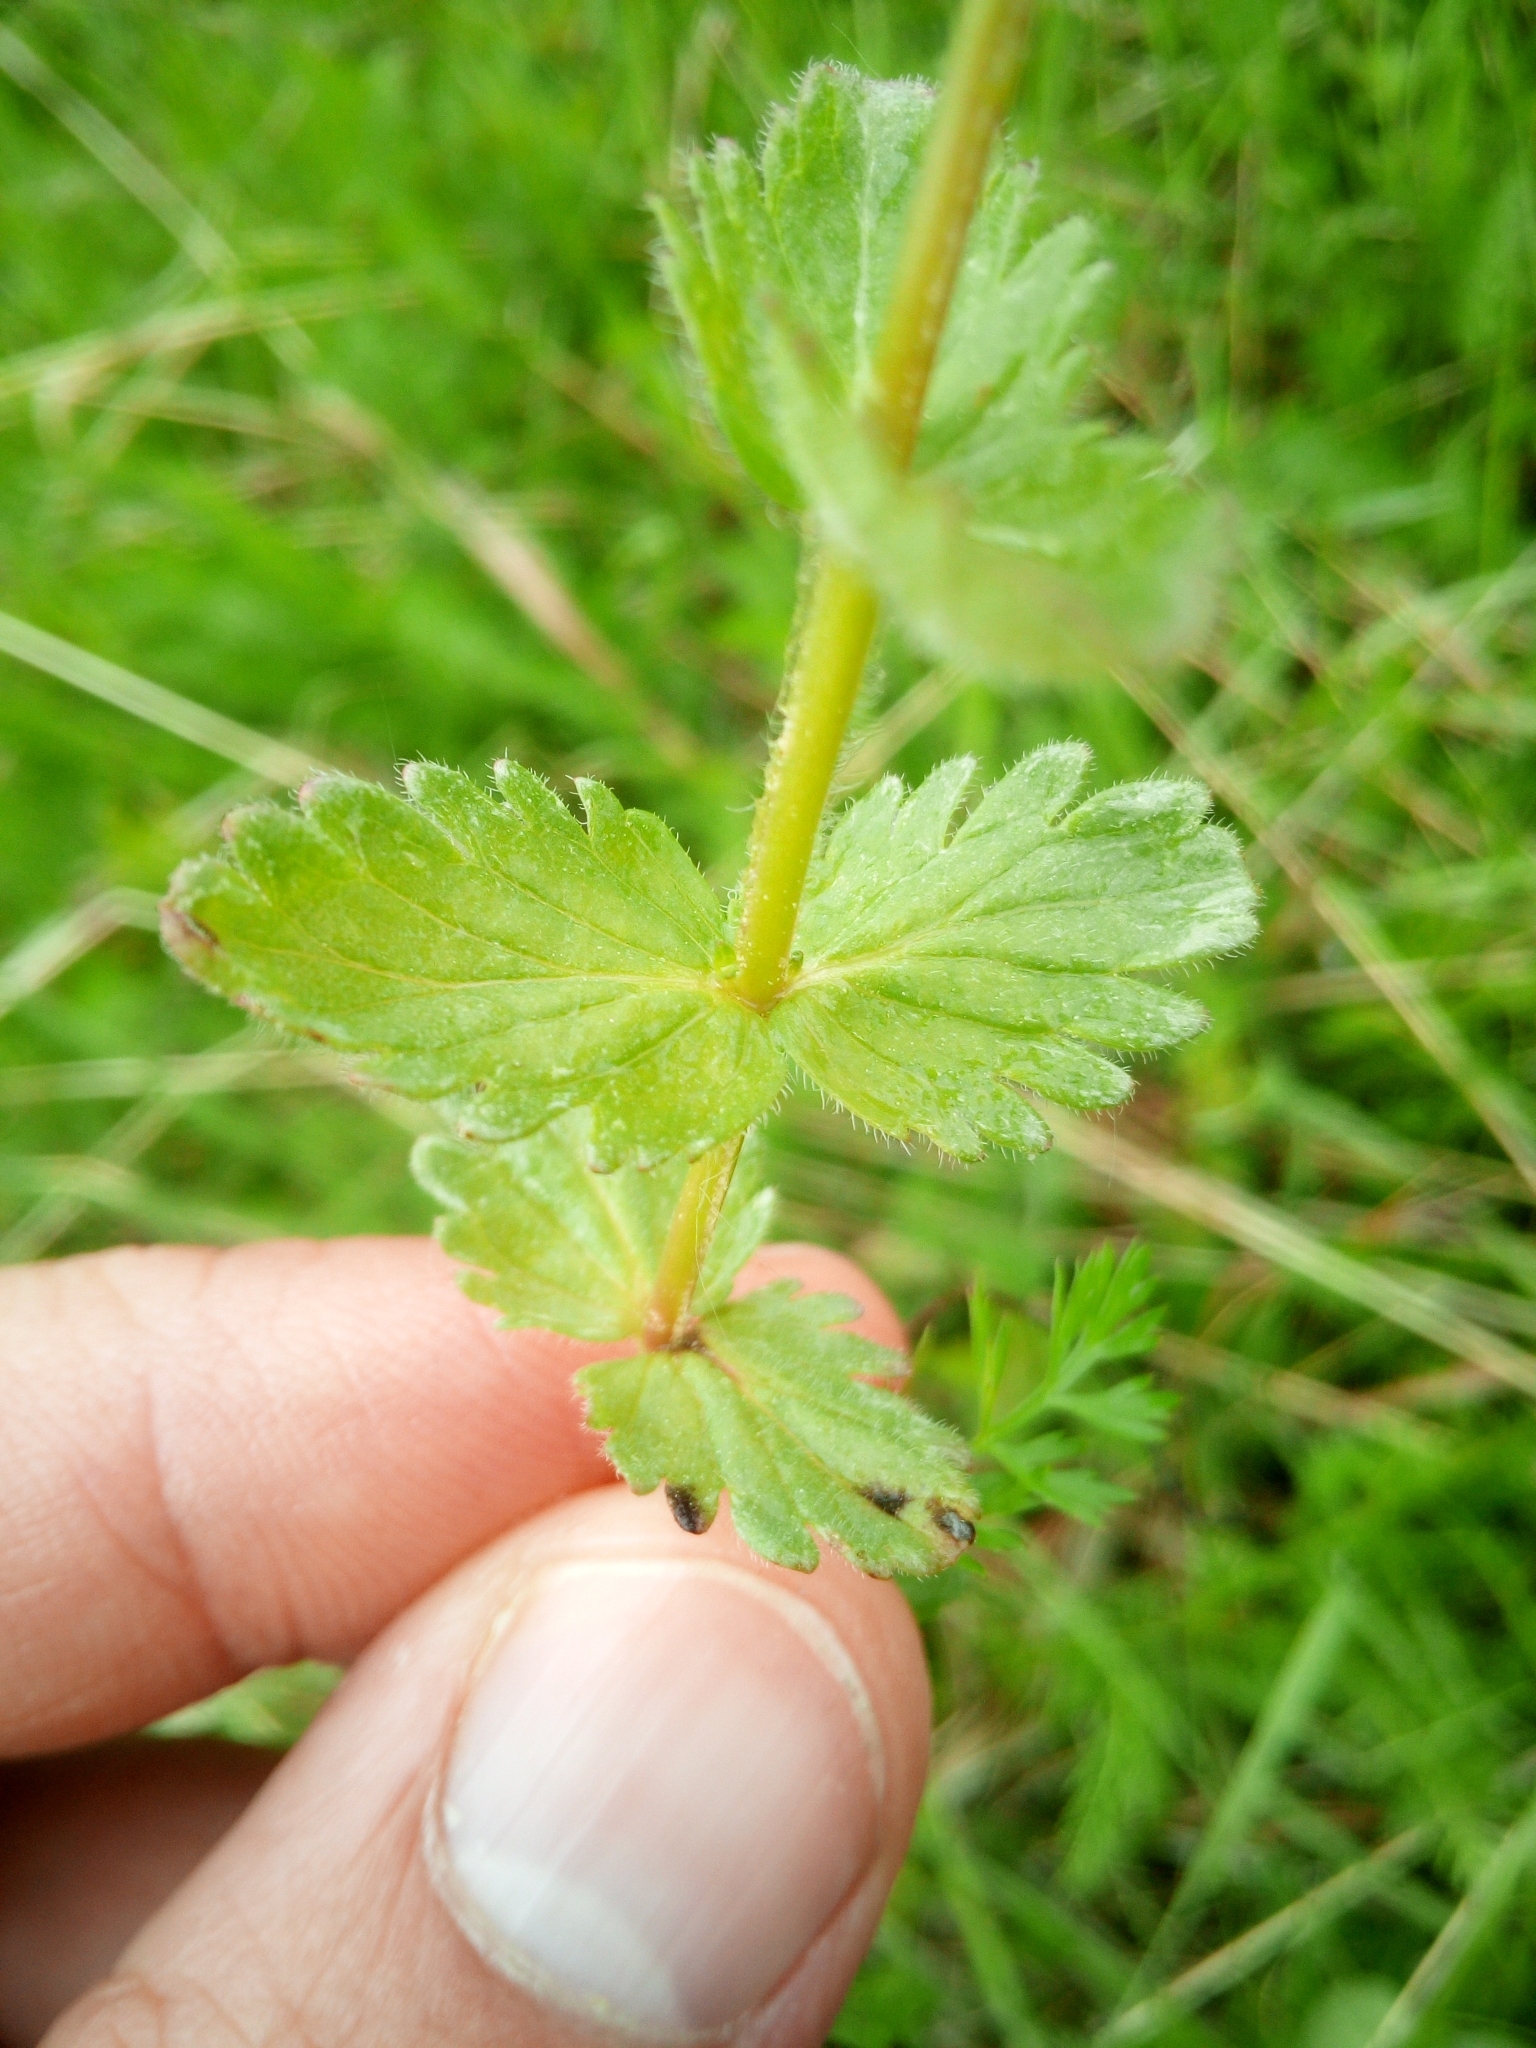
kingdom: Plantae
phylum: Tracheophyta
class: Magnoliopsida
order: Lamiales
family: Plantaginaceae
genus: Veronica
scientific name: Veronica chamaedrys
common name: Germander speedwell
